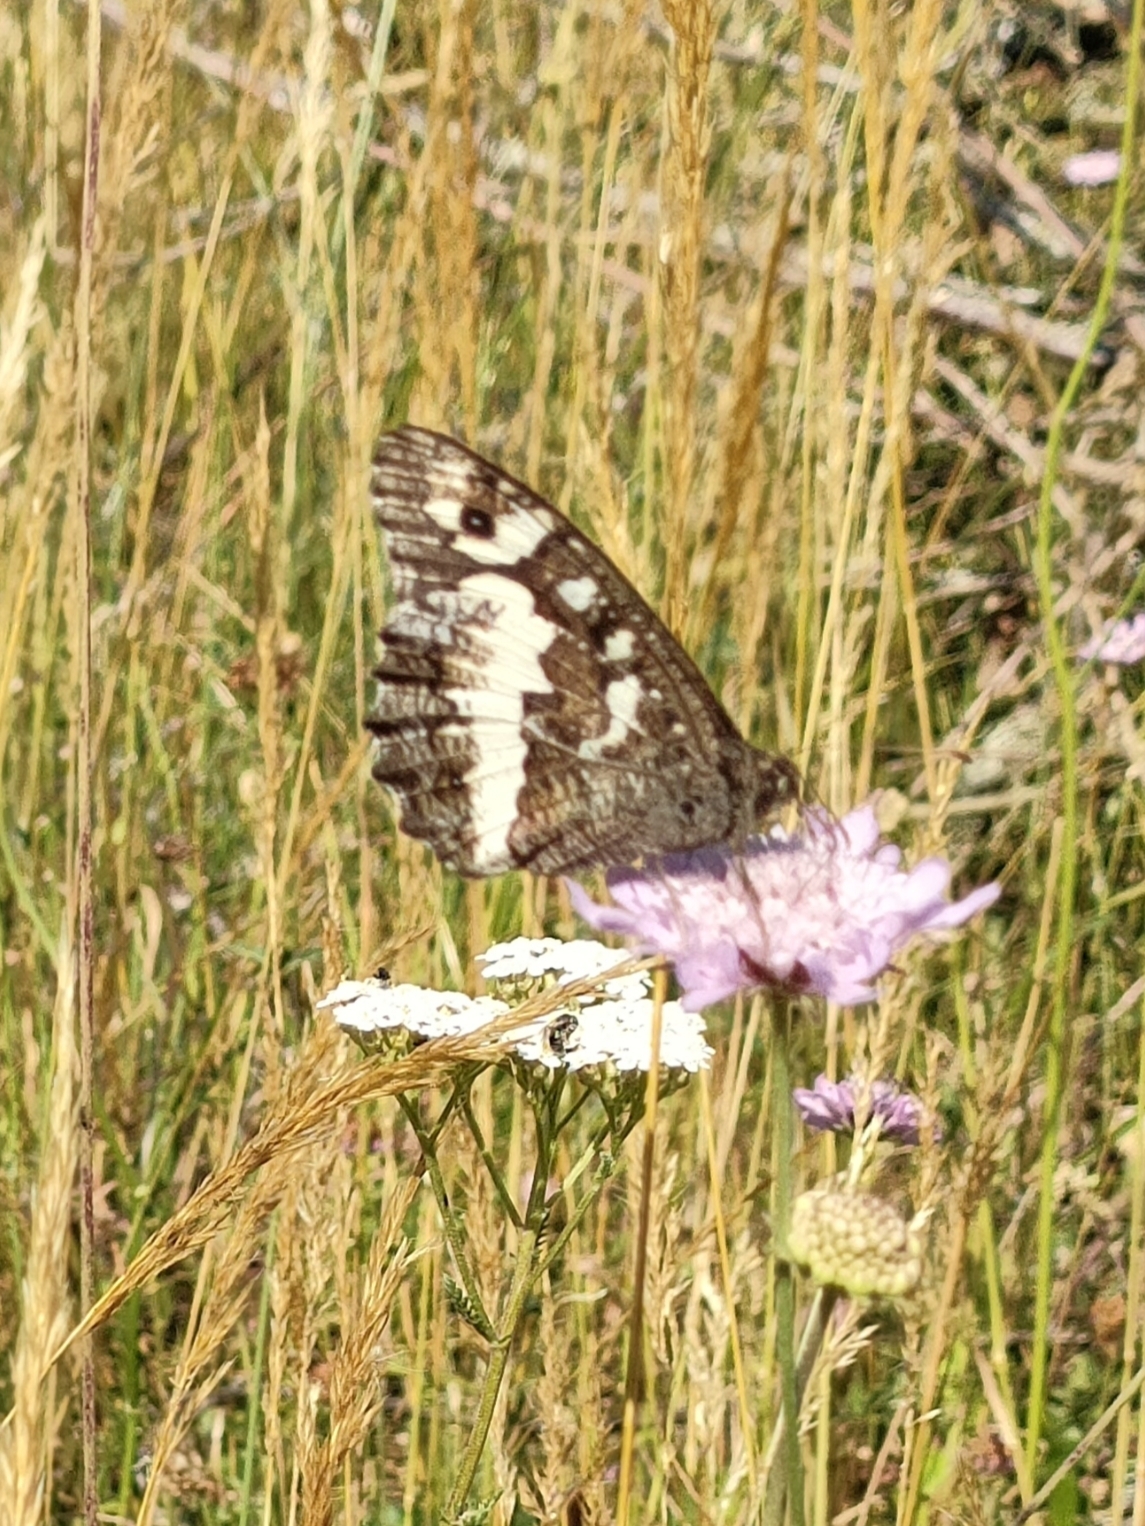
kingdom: Animalia
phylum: Arthropoda
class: Insecta
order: Lepidoptera
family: Lycaenidae
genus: Loweia
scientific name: Loweia tityrus
